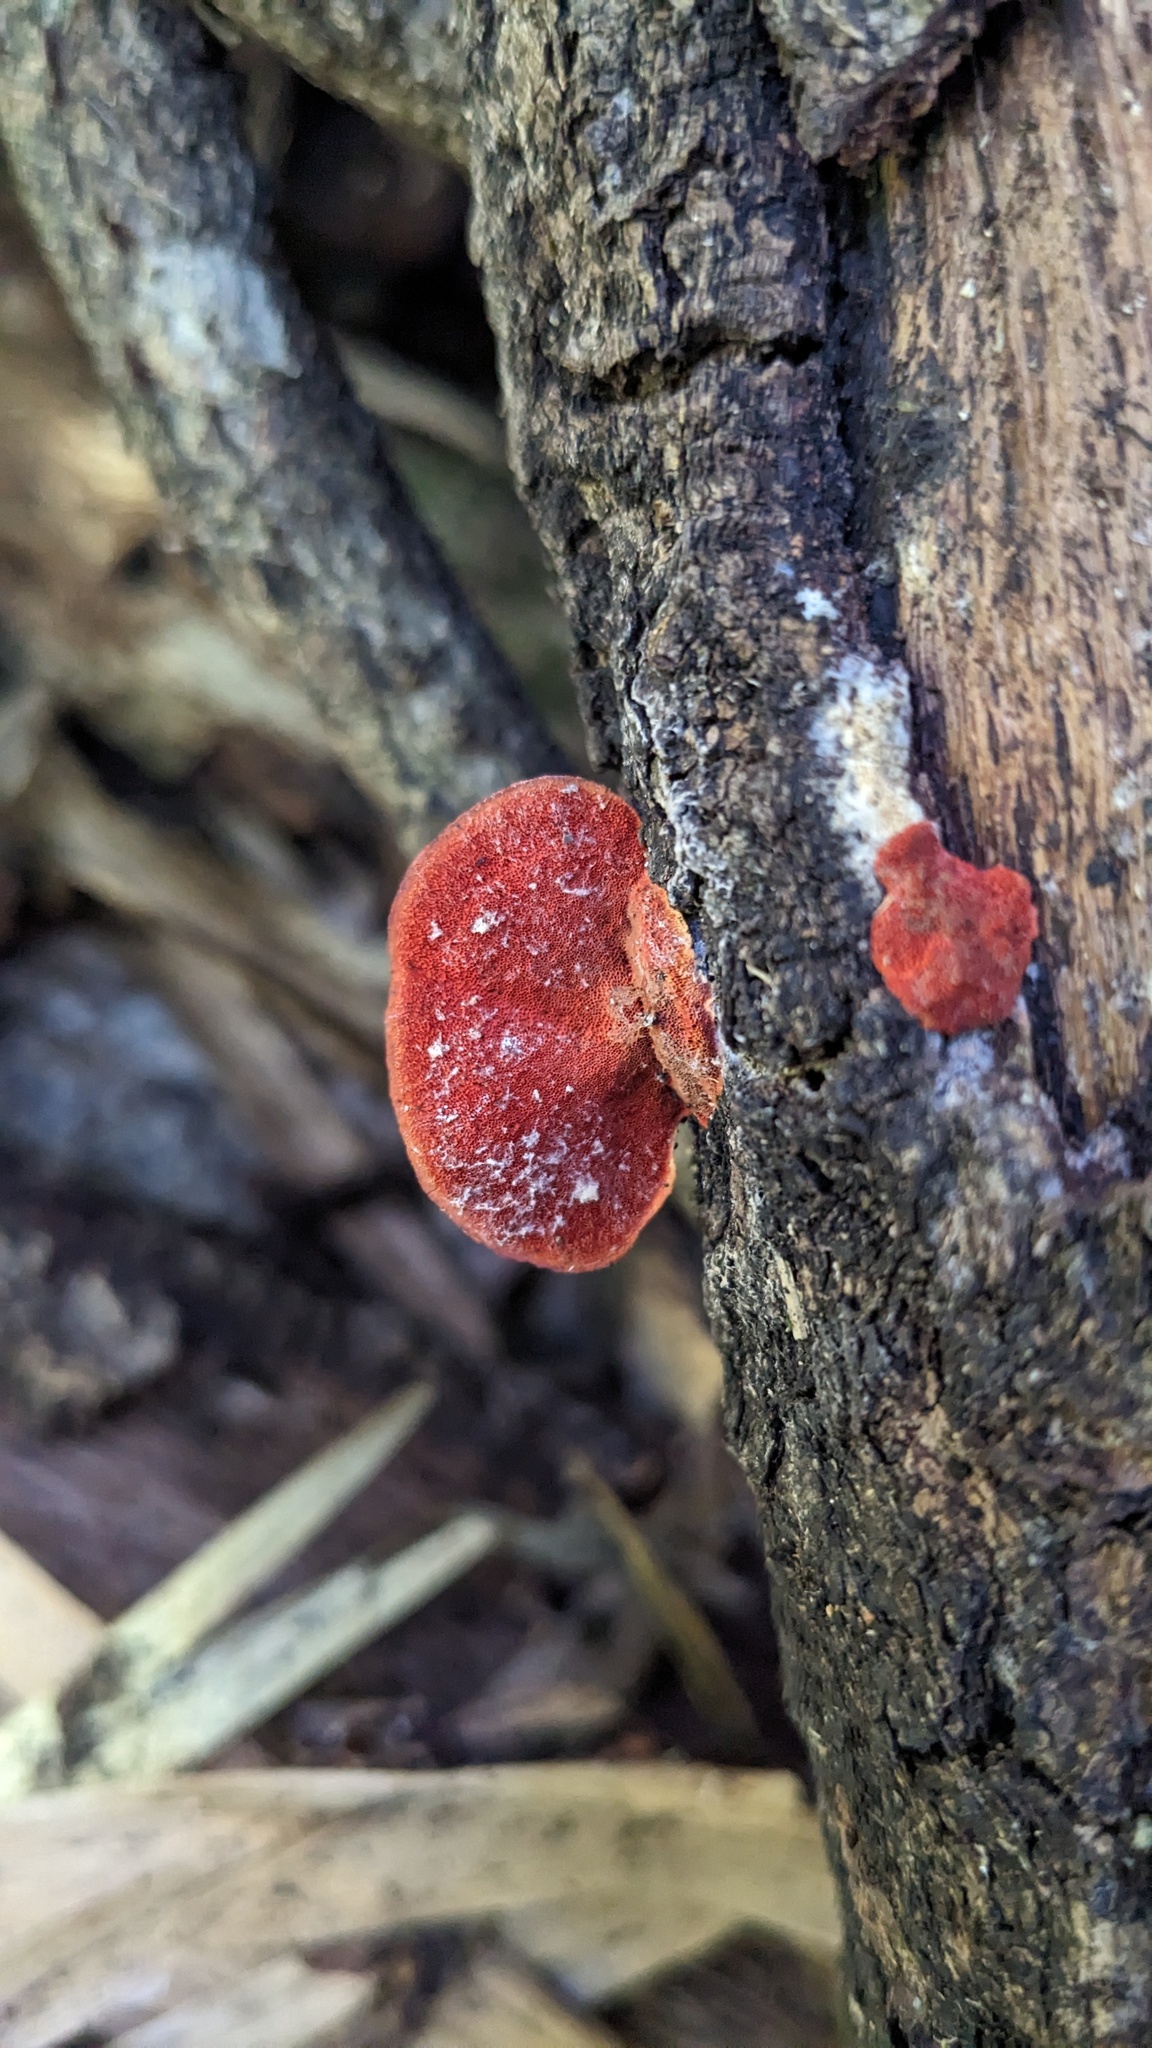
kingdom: Fungi
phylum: Basidiomycota
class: Agaricomycetes
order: Polyporales
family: Polyporaceae
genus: Trametes
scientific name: Trametes coccinea
